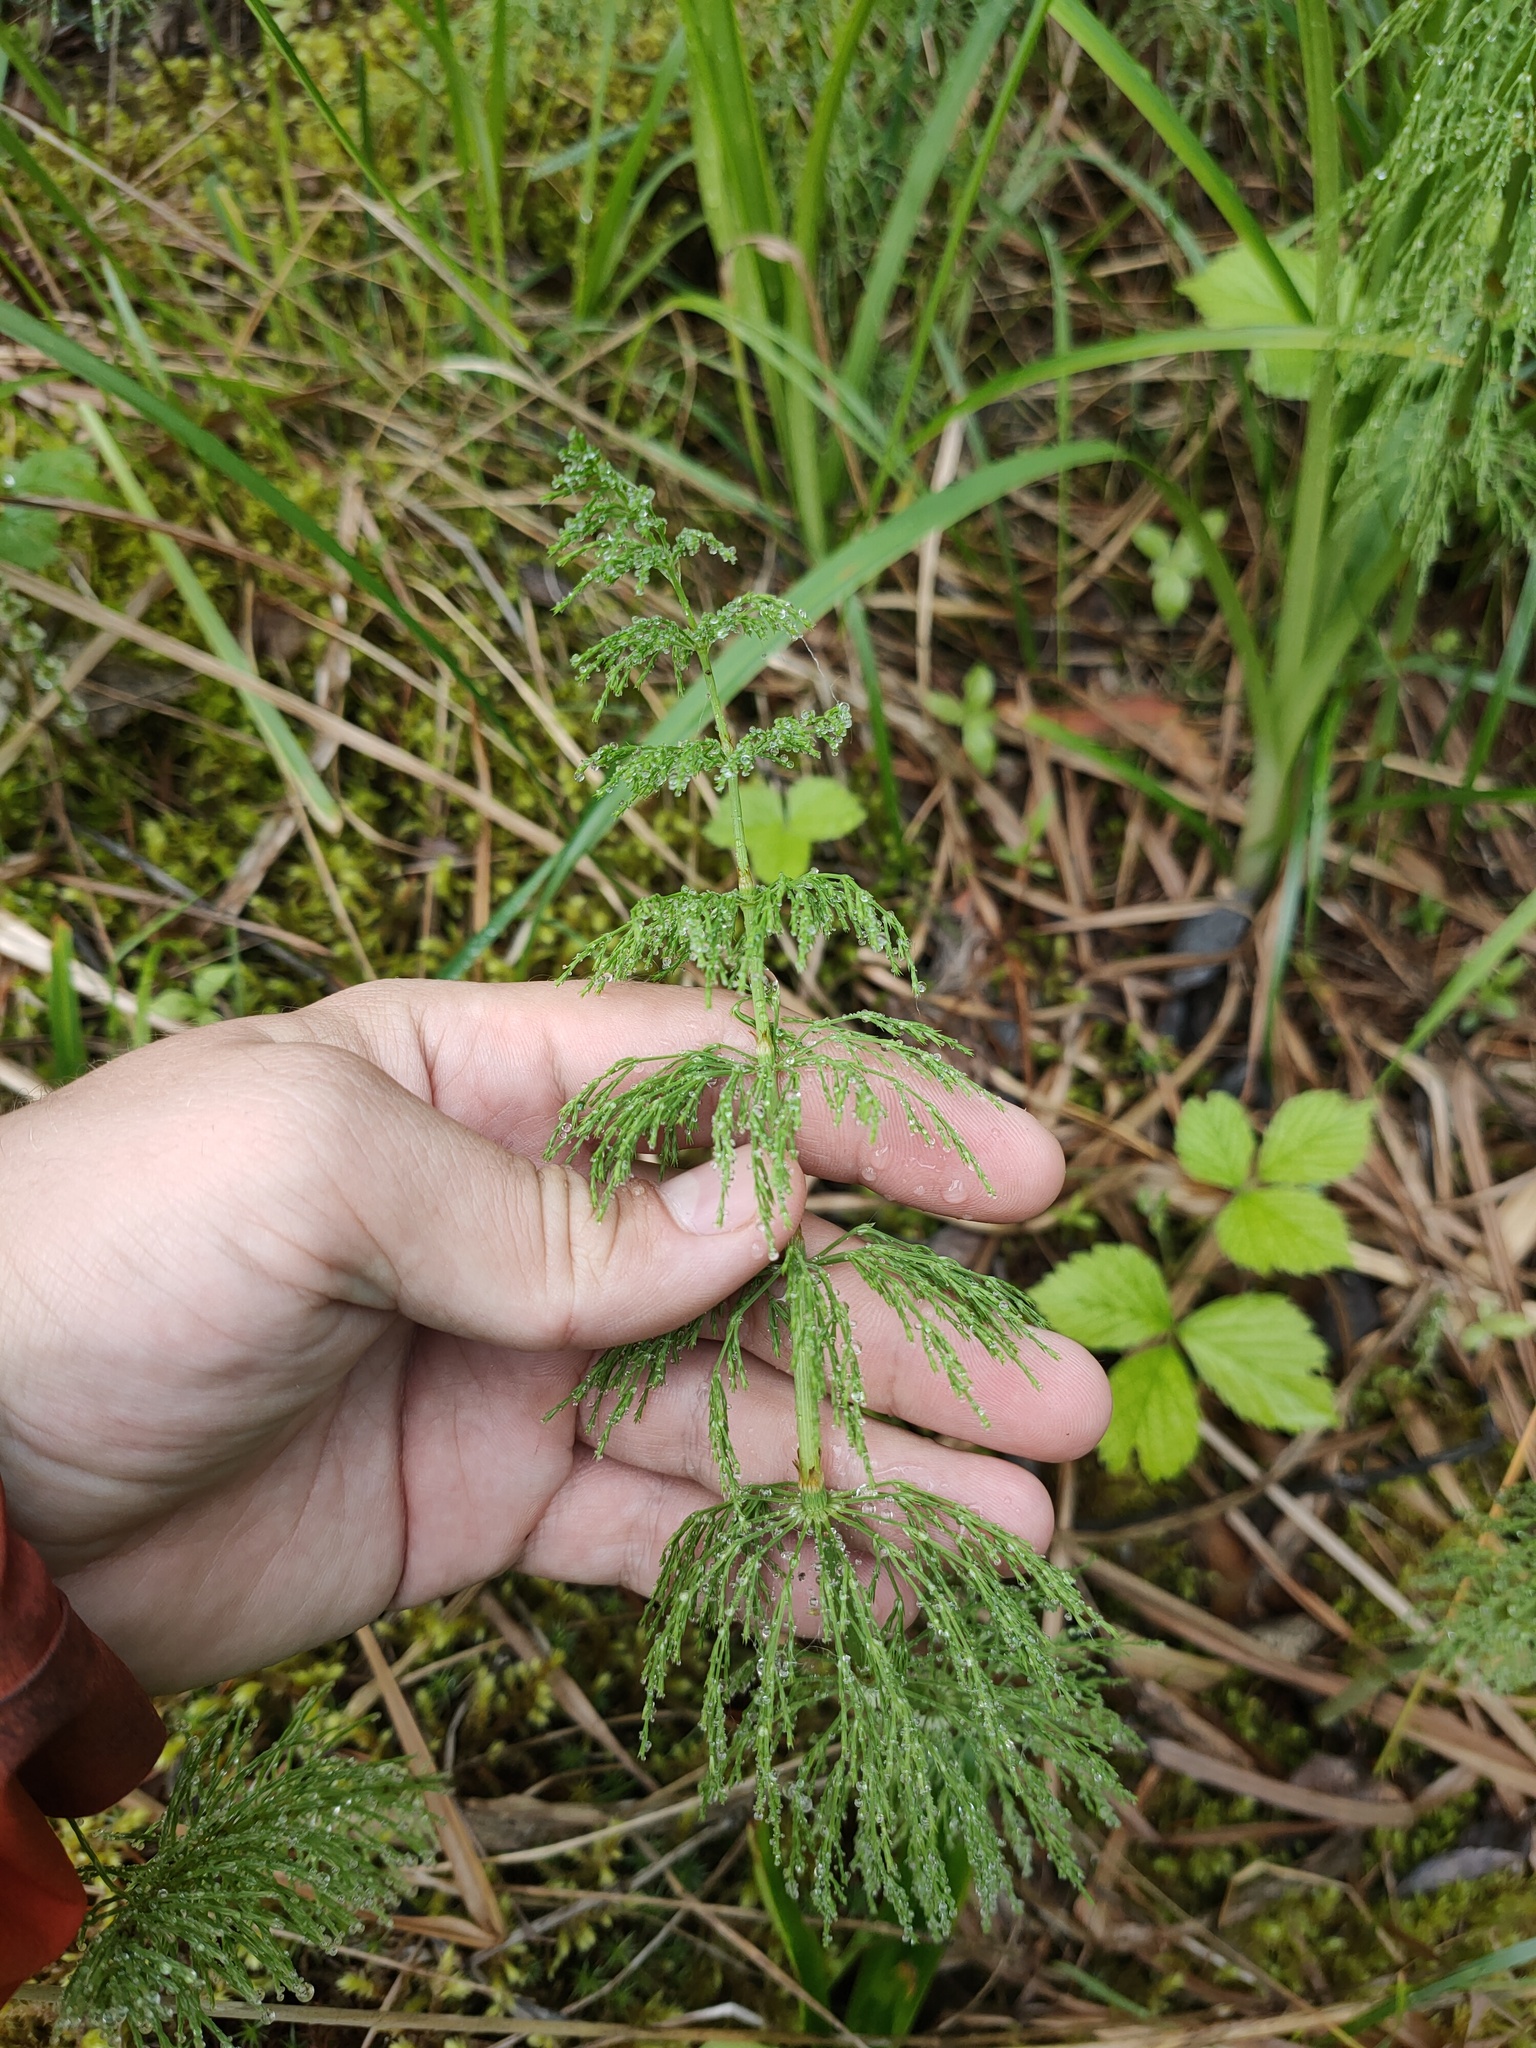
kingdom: Plantae
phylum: Tracheophyta
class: Polypodiopsida
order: Equisetales
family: Equisetaceae
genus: Equisetum
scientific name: Equisetum sylvaticum
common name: Wood horsetail
